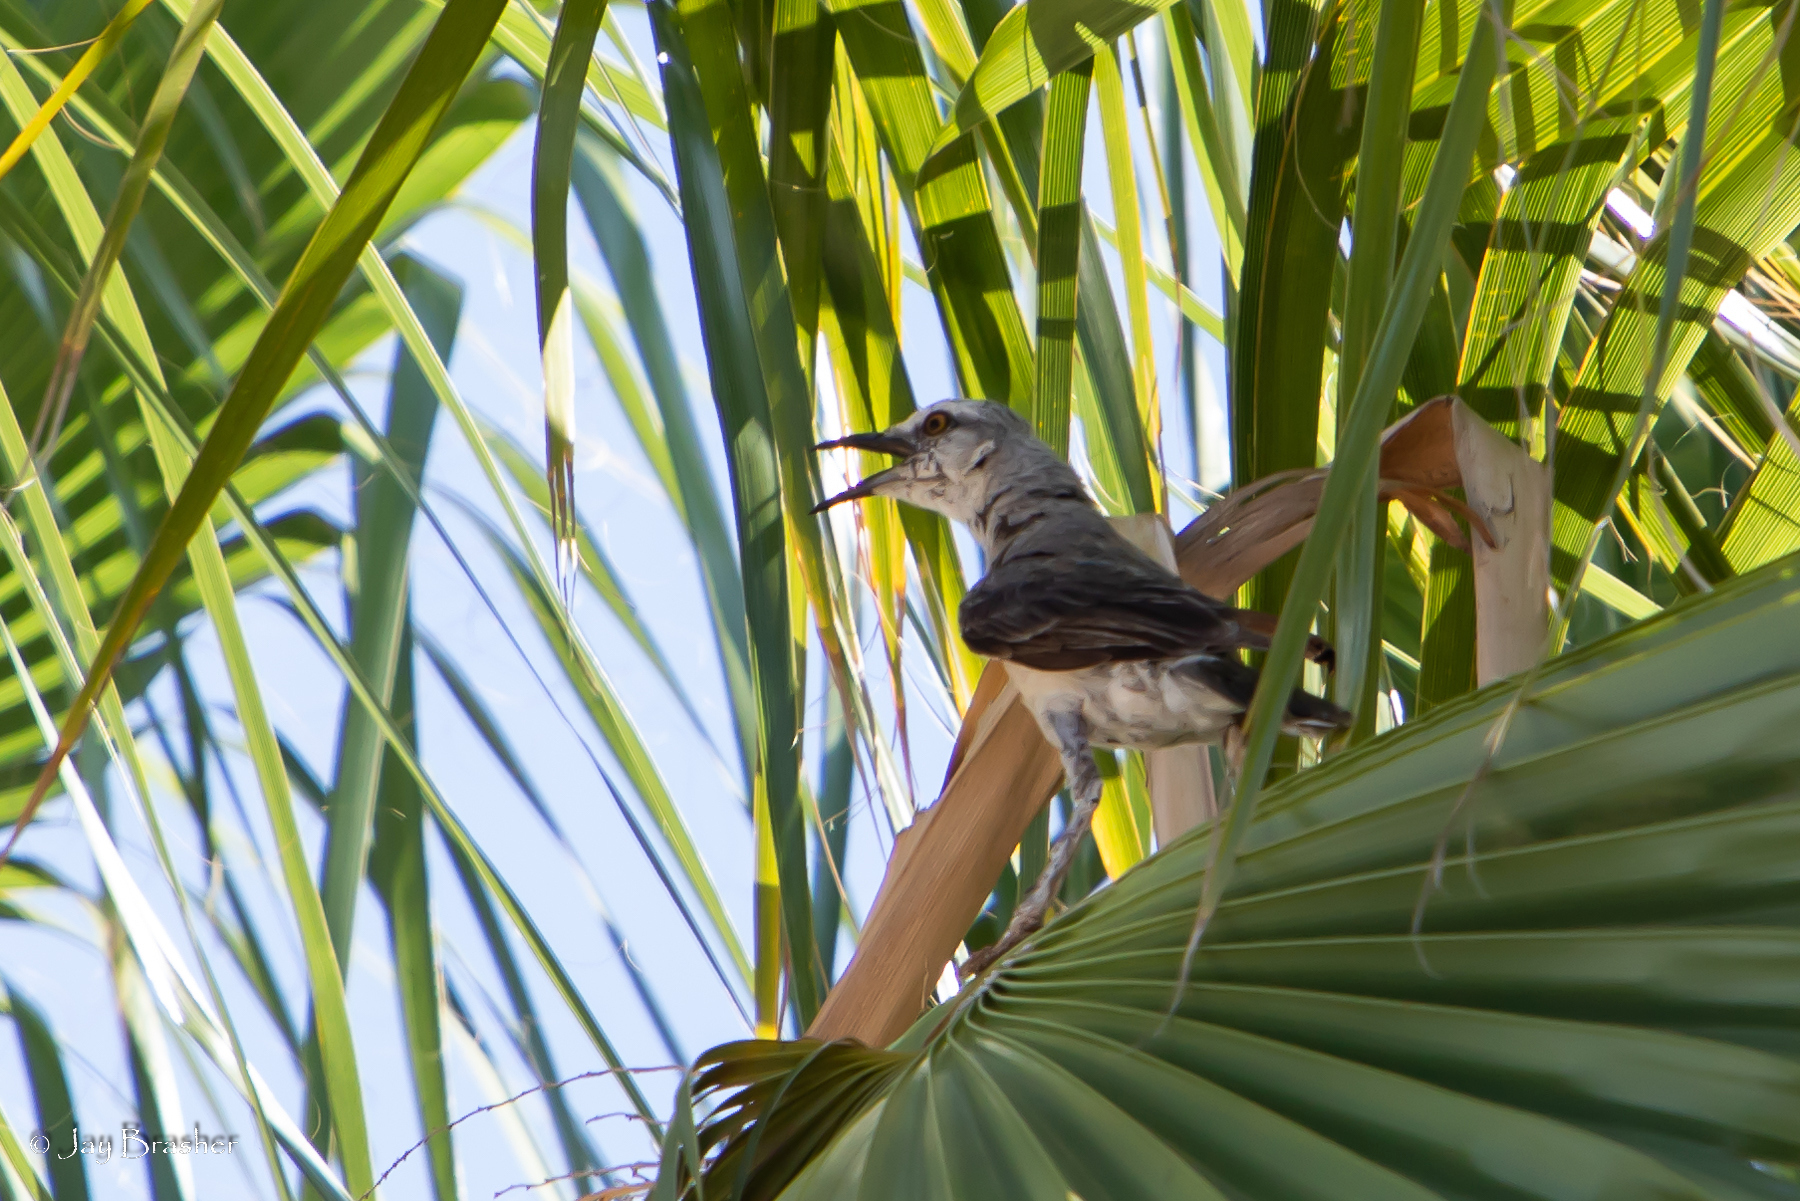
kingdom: Animalia
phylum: Chordata
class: Aves
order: Passeriformes
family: Mimidae
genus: Mimus
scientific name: Mimus gilvus
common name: Tropical mockingbird
